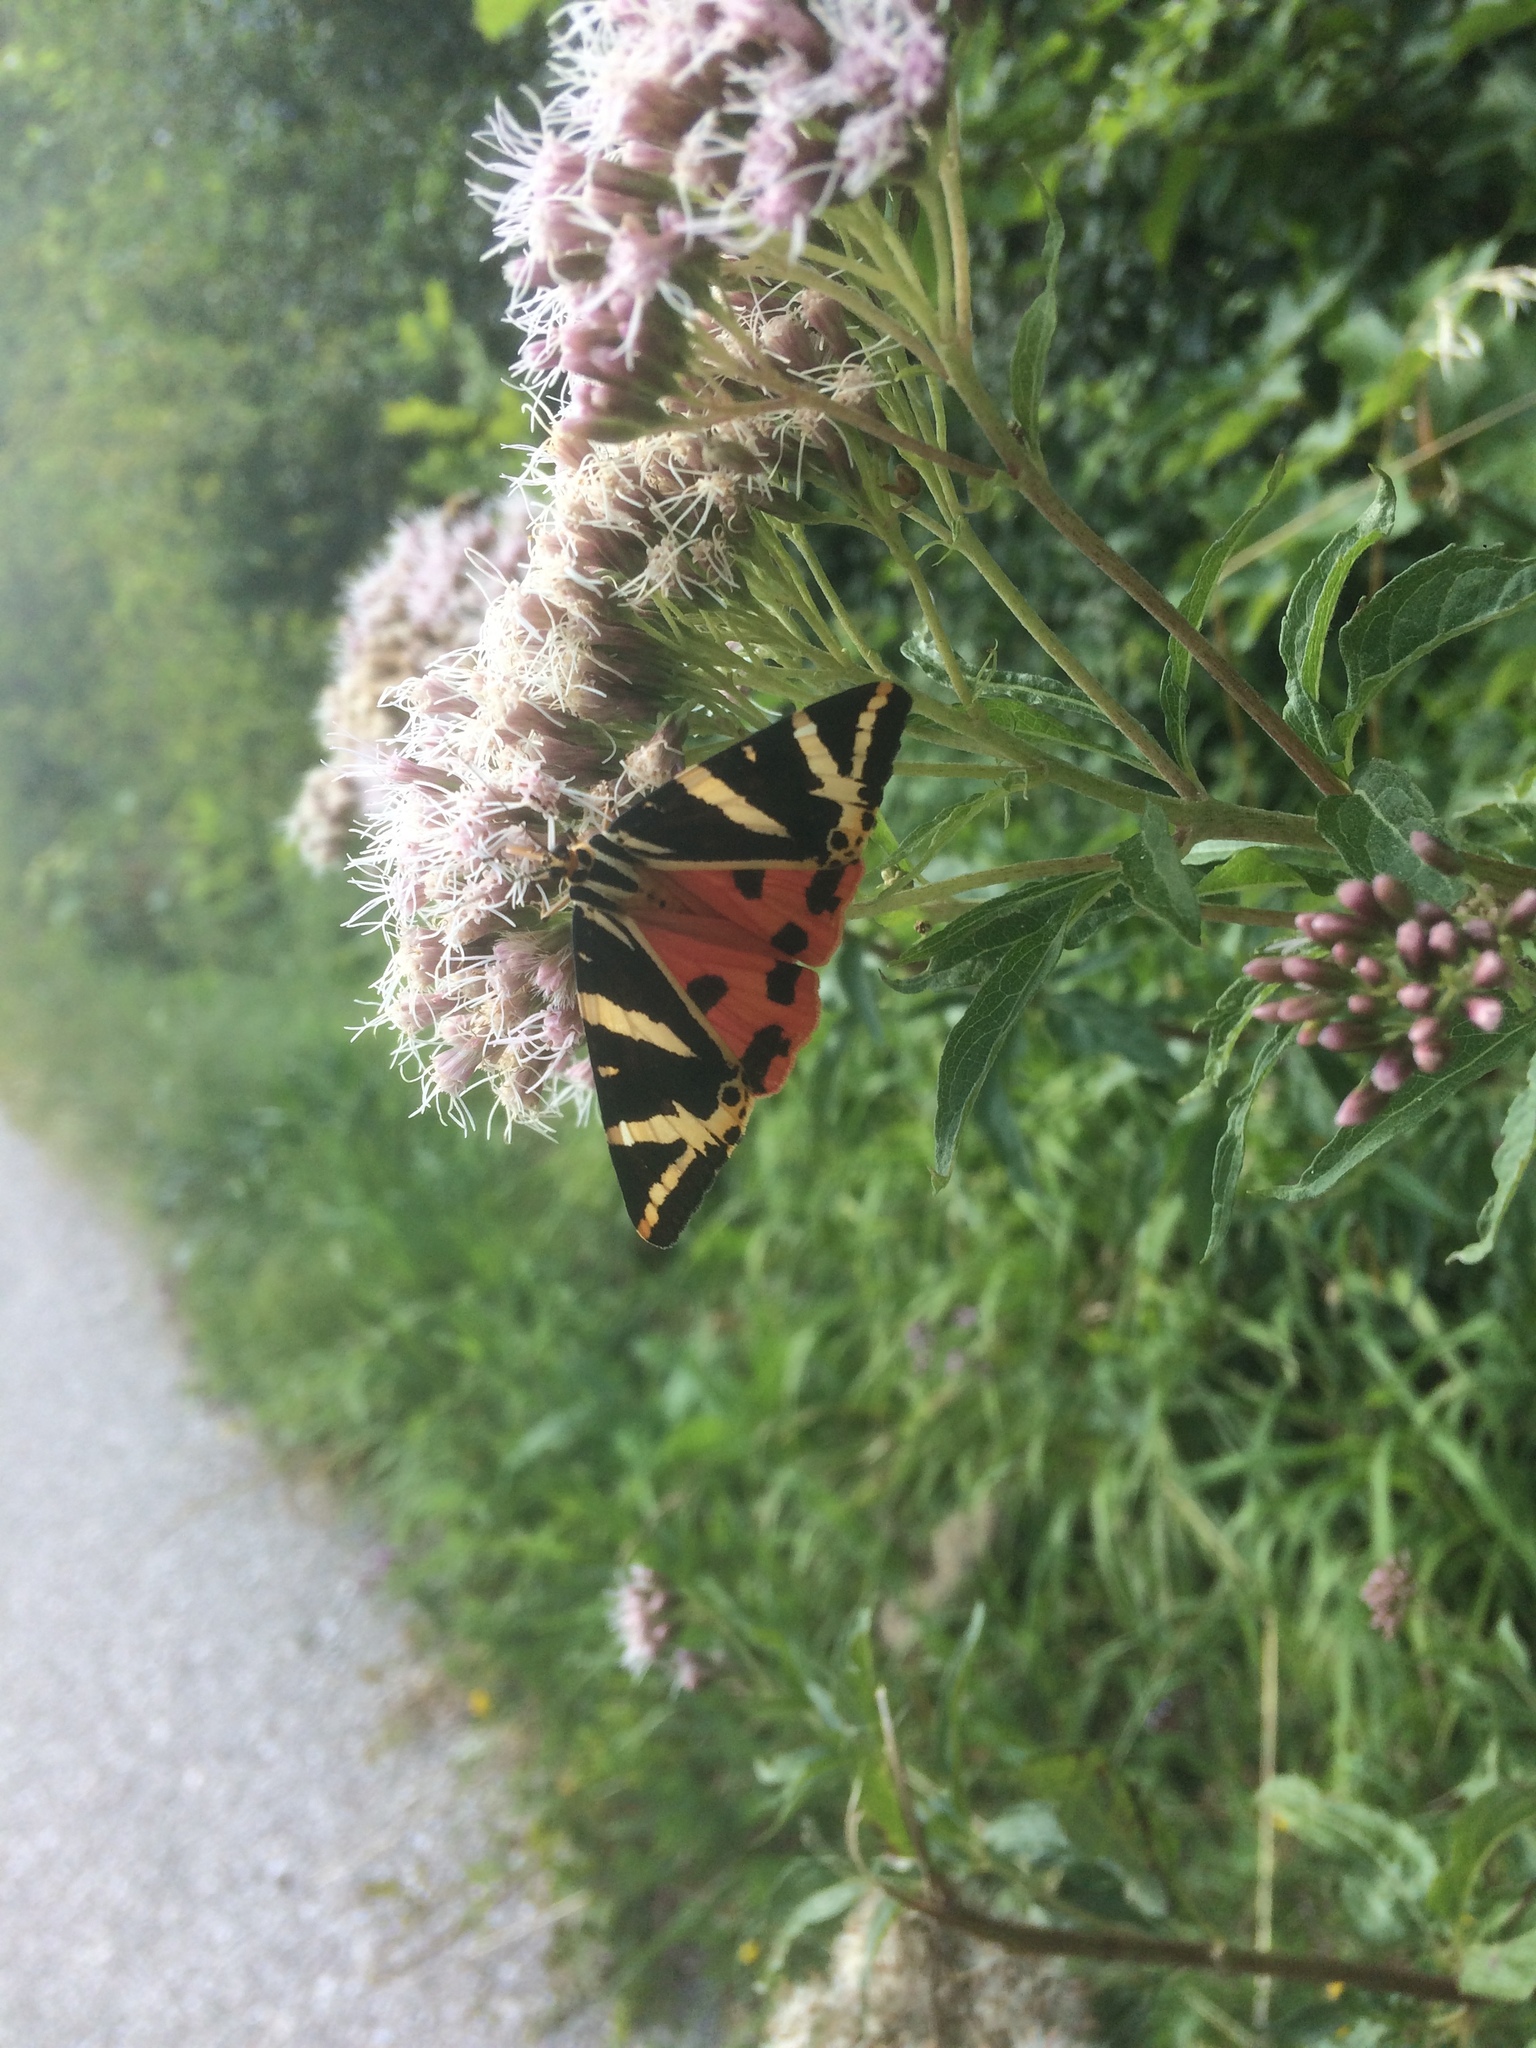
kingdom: Animalia
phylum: Arthropoda
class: Insecta
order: Lepidoptera
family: Erebidae
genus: Euplagia
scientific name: Euplagia quadripunctaria
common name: Jersey tiger
